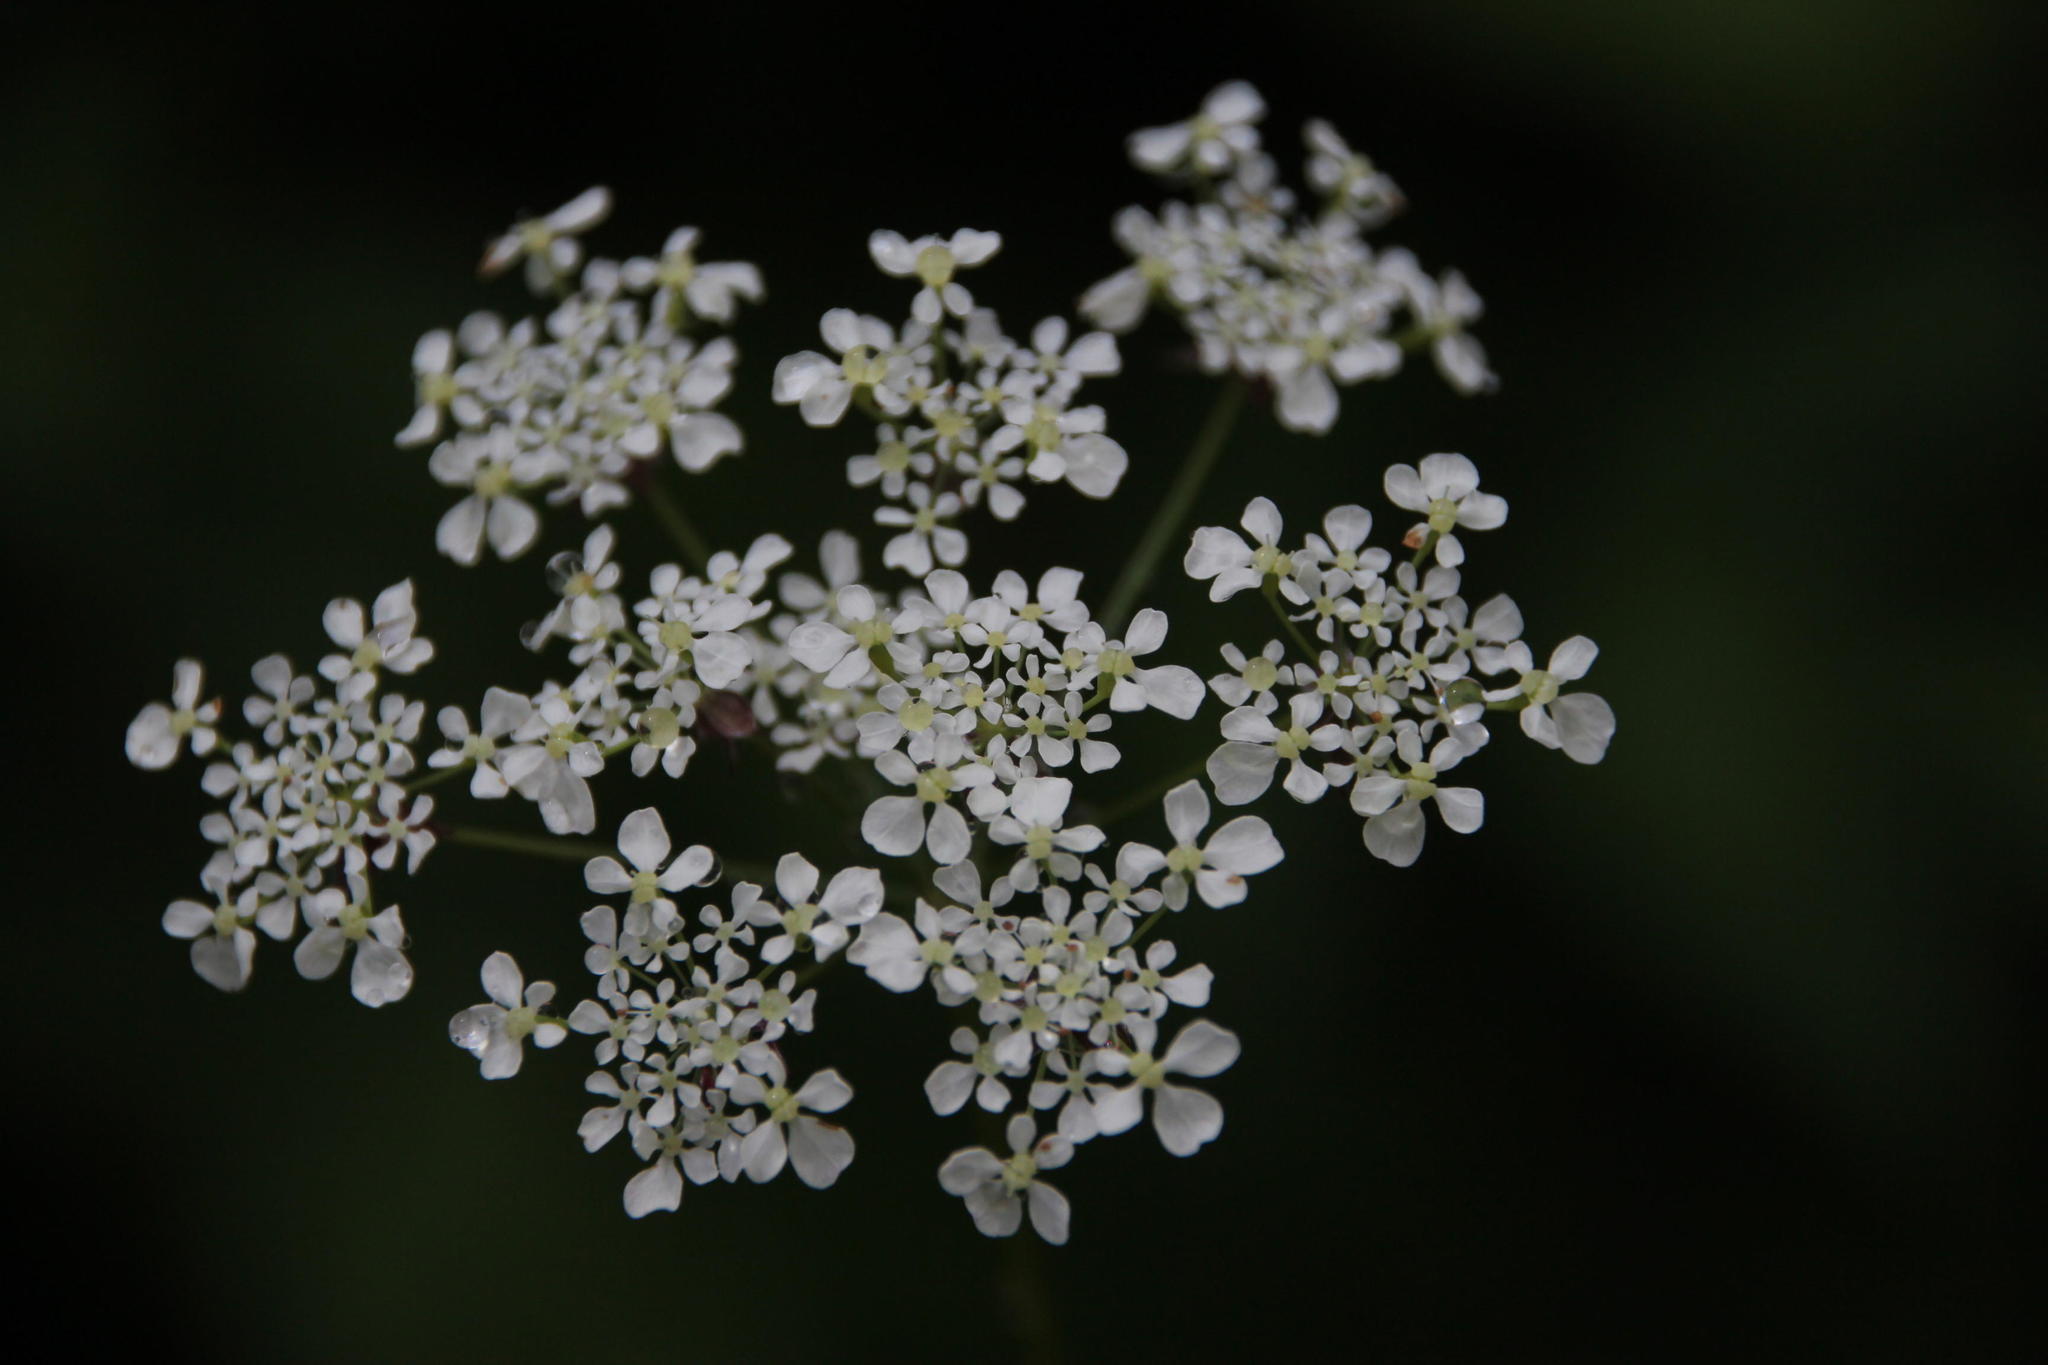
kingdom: Plantae
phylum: Tracheophyta
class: Magnoliopsida
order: Apiales
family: Apiaceae
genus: Anthriscus
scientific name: Anthriscus sylvestris
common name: Cow parsley
